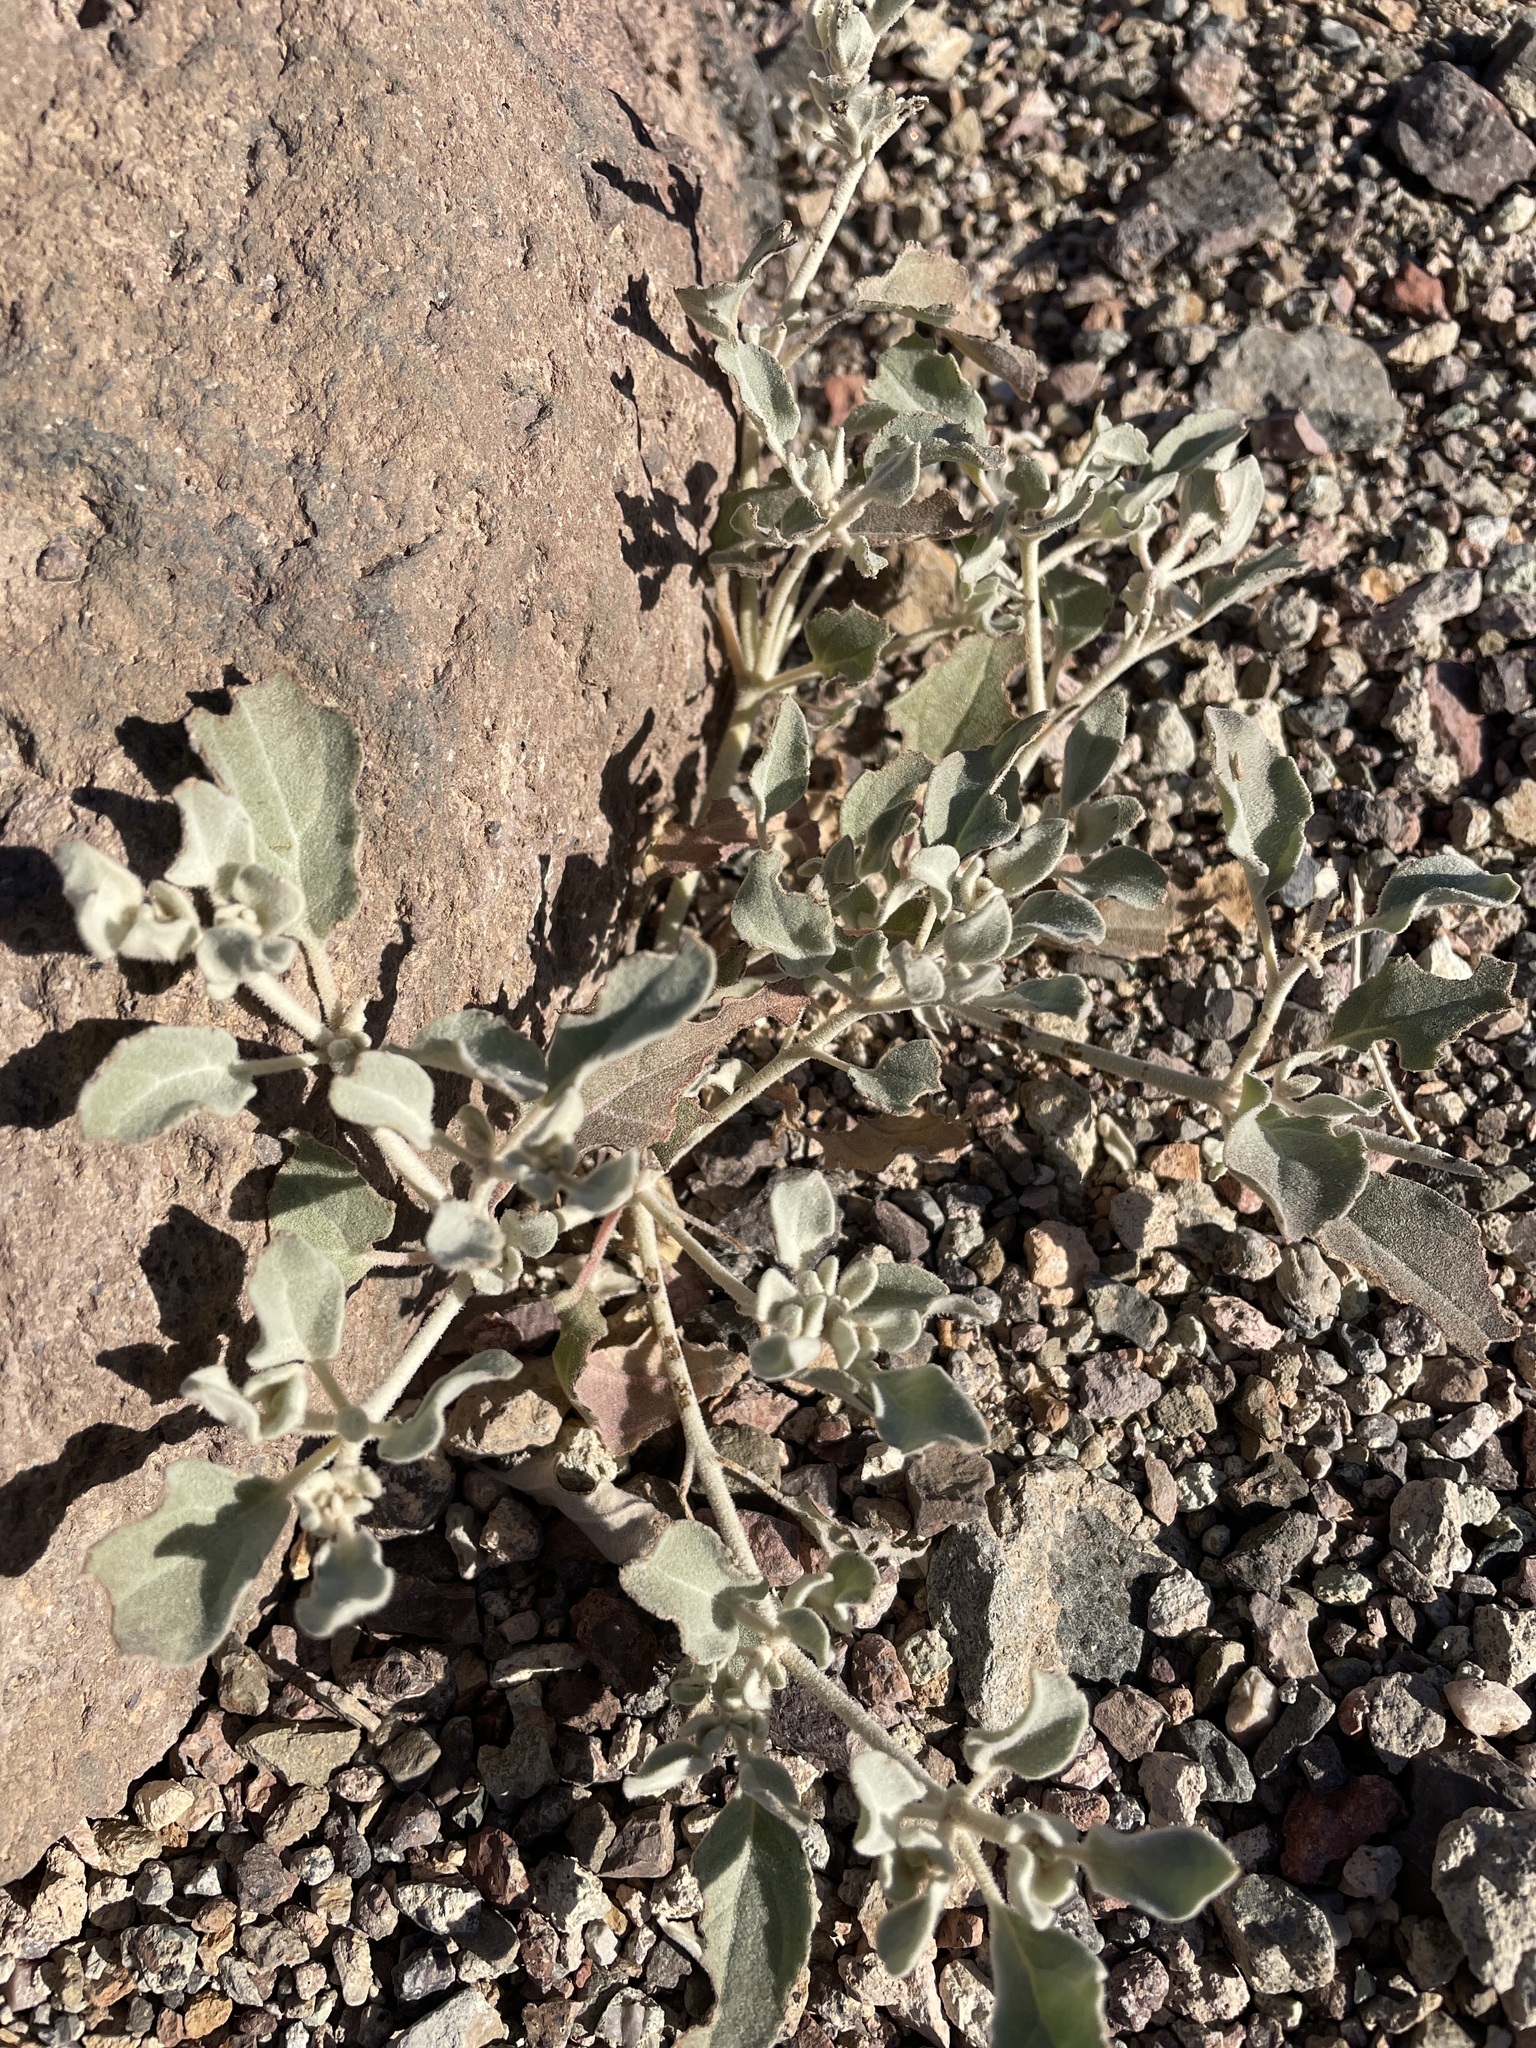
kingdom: Plantae
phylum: Tracheophyta
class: Magnoliopsida
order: Caryophyllales
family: Amaranthaceae
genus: Tidestromia
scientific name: Tidestromia suffruticosa
